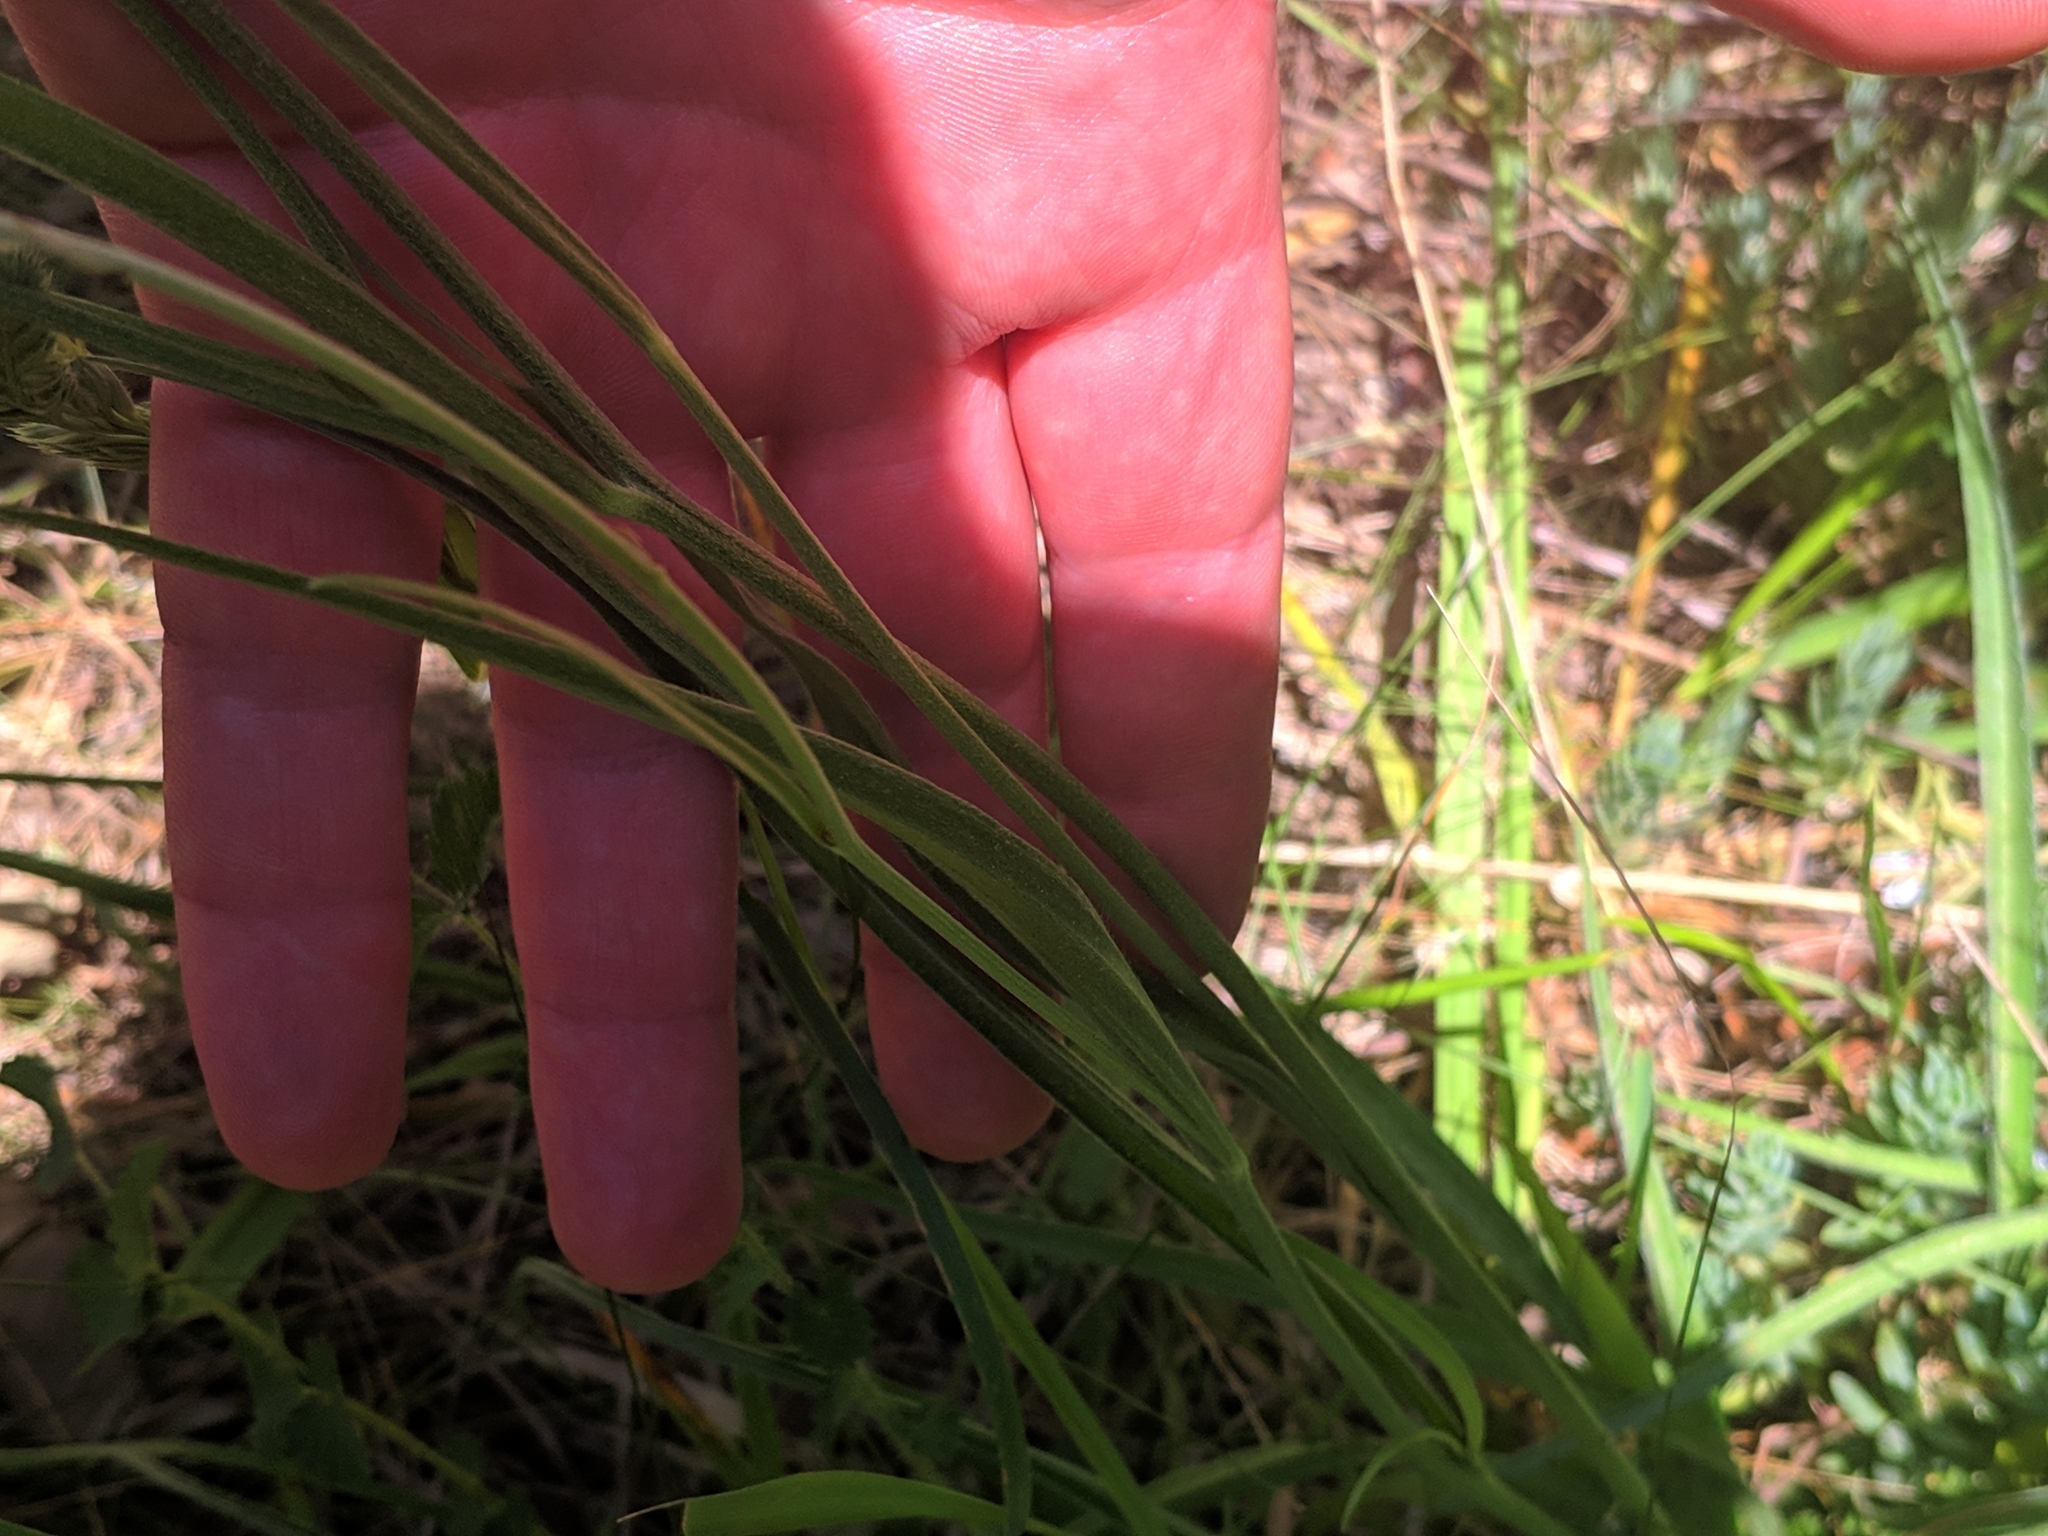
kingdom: Plantae
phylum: Tracheophyta
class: Magnoliopsida
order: Asterales
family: Asteraceae
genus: Catananche
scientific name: Catananche caerulea
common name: Blue cupidone
